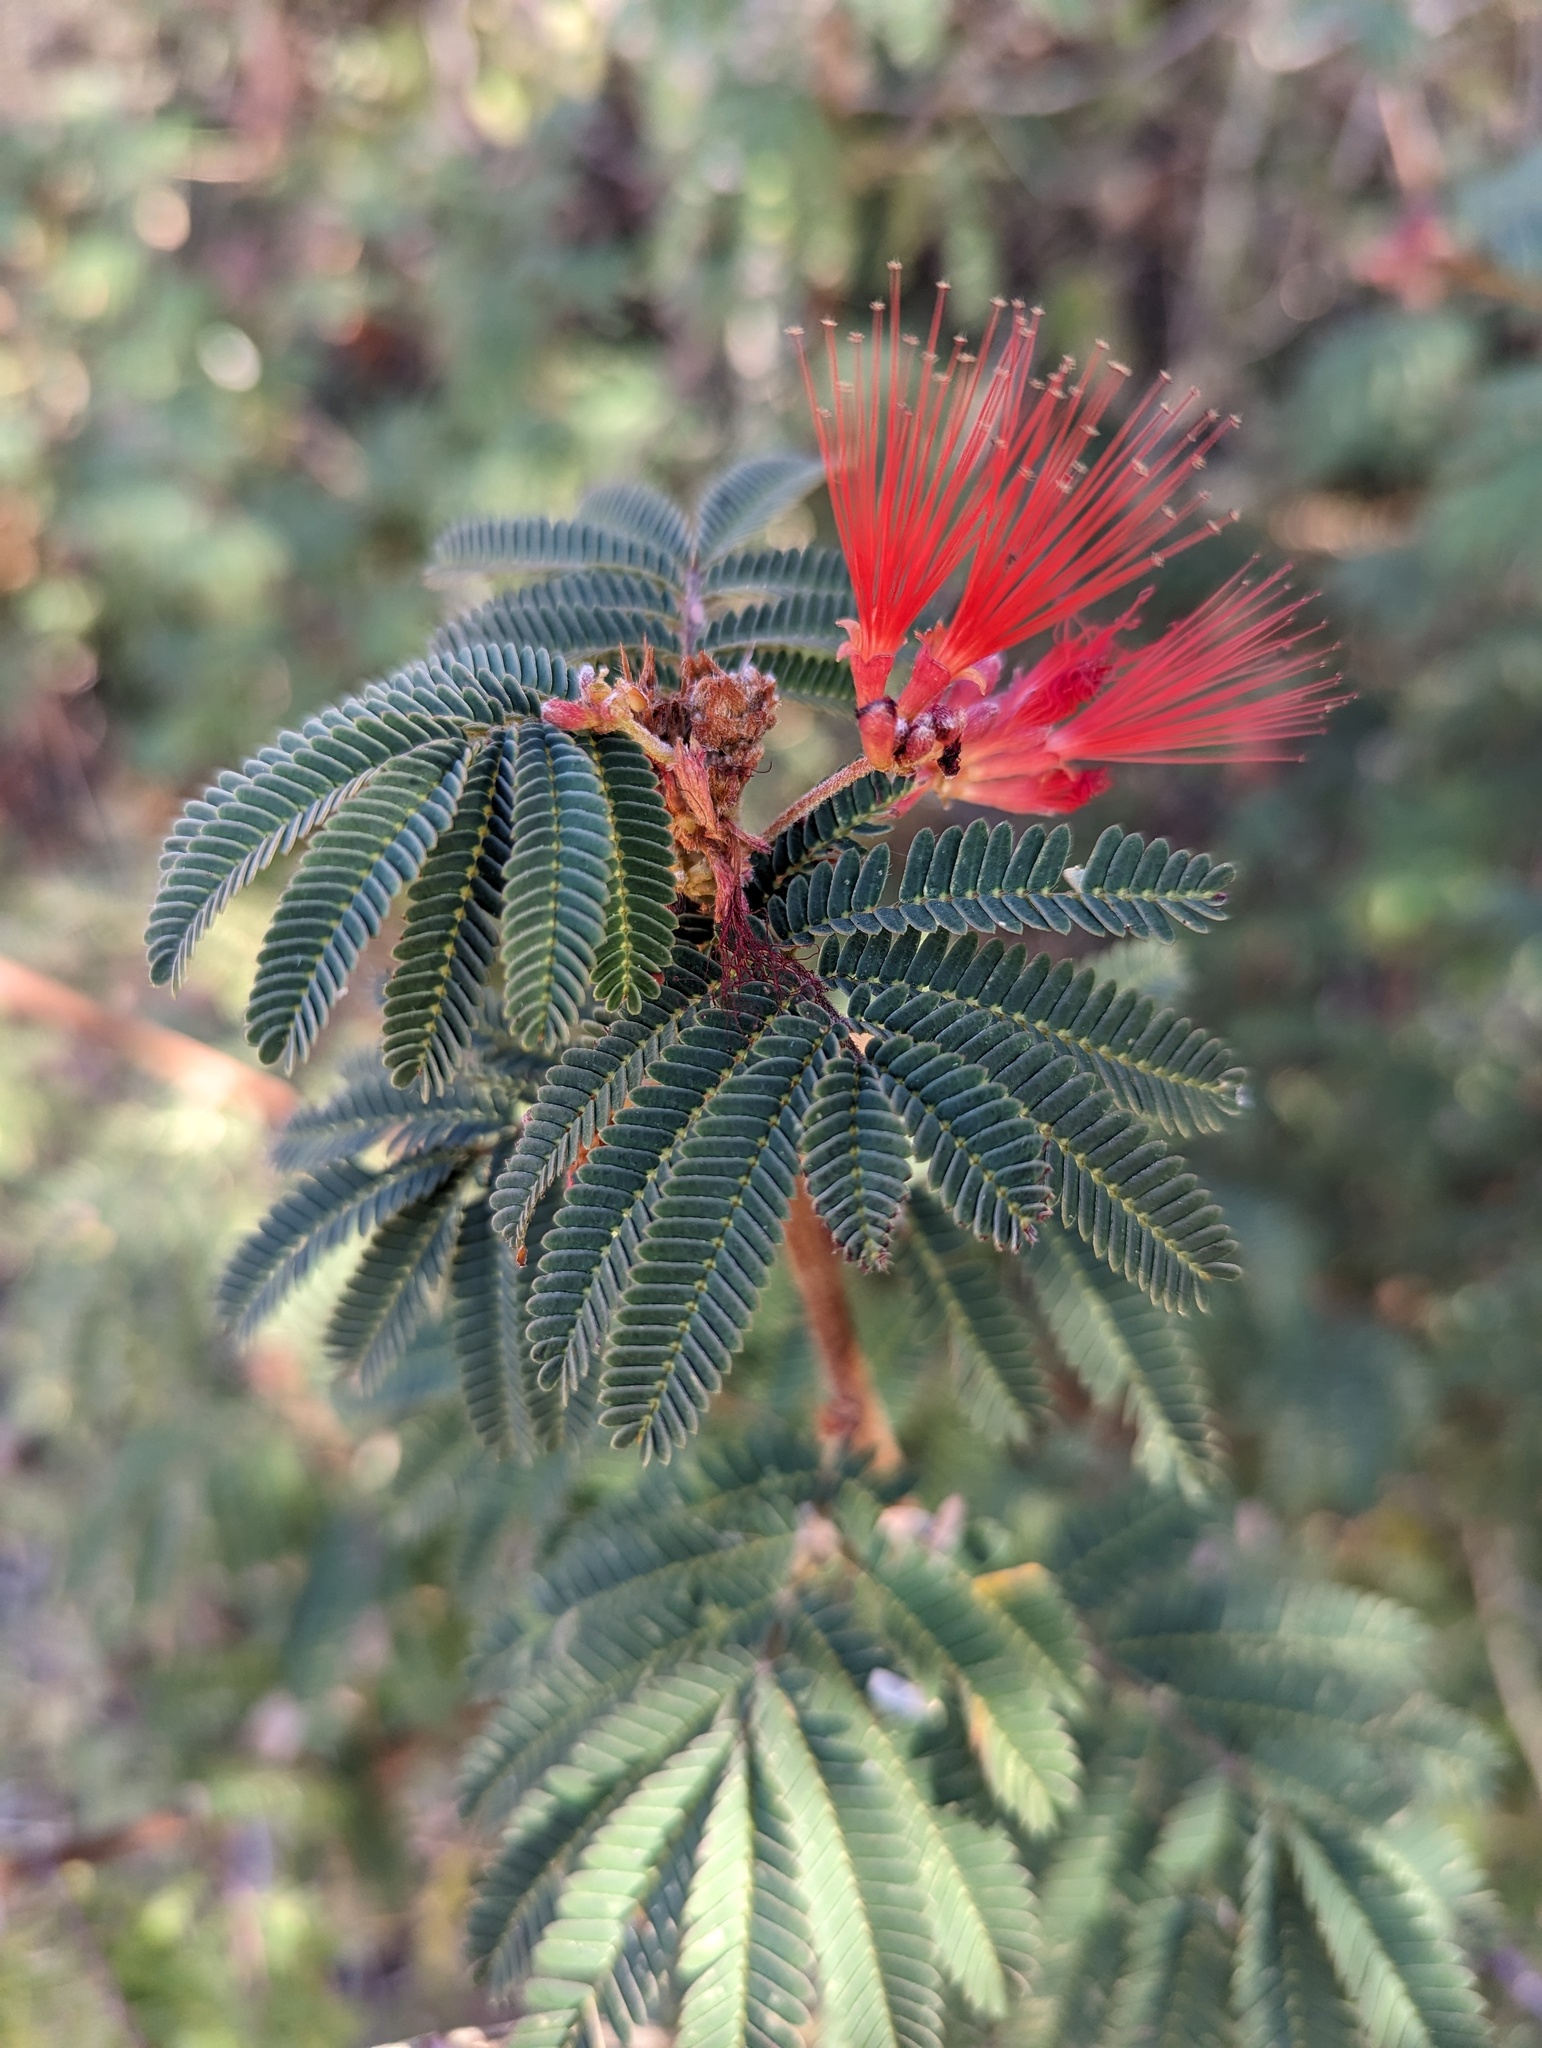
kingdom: Plantae
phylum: Tracheophyta
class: Magnoliopsida
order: Fabales
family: Fabaceae
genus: Calliandra
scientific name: Calliandra peninsularis
